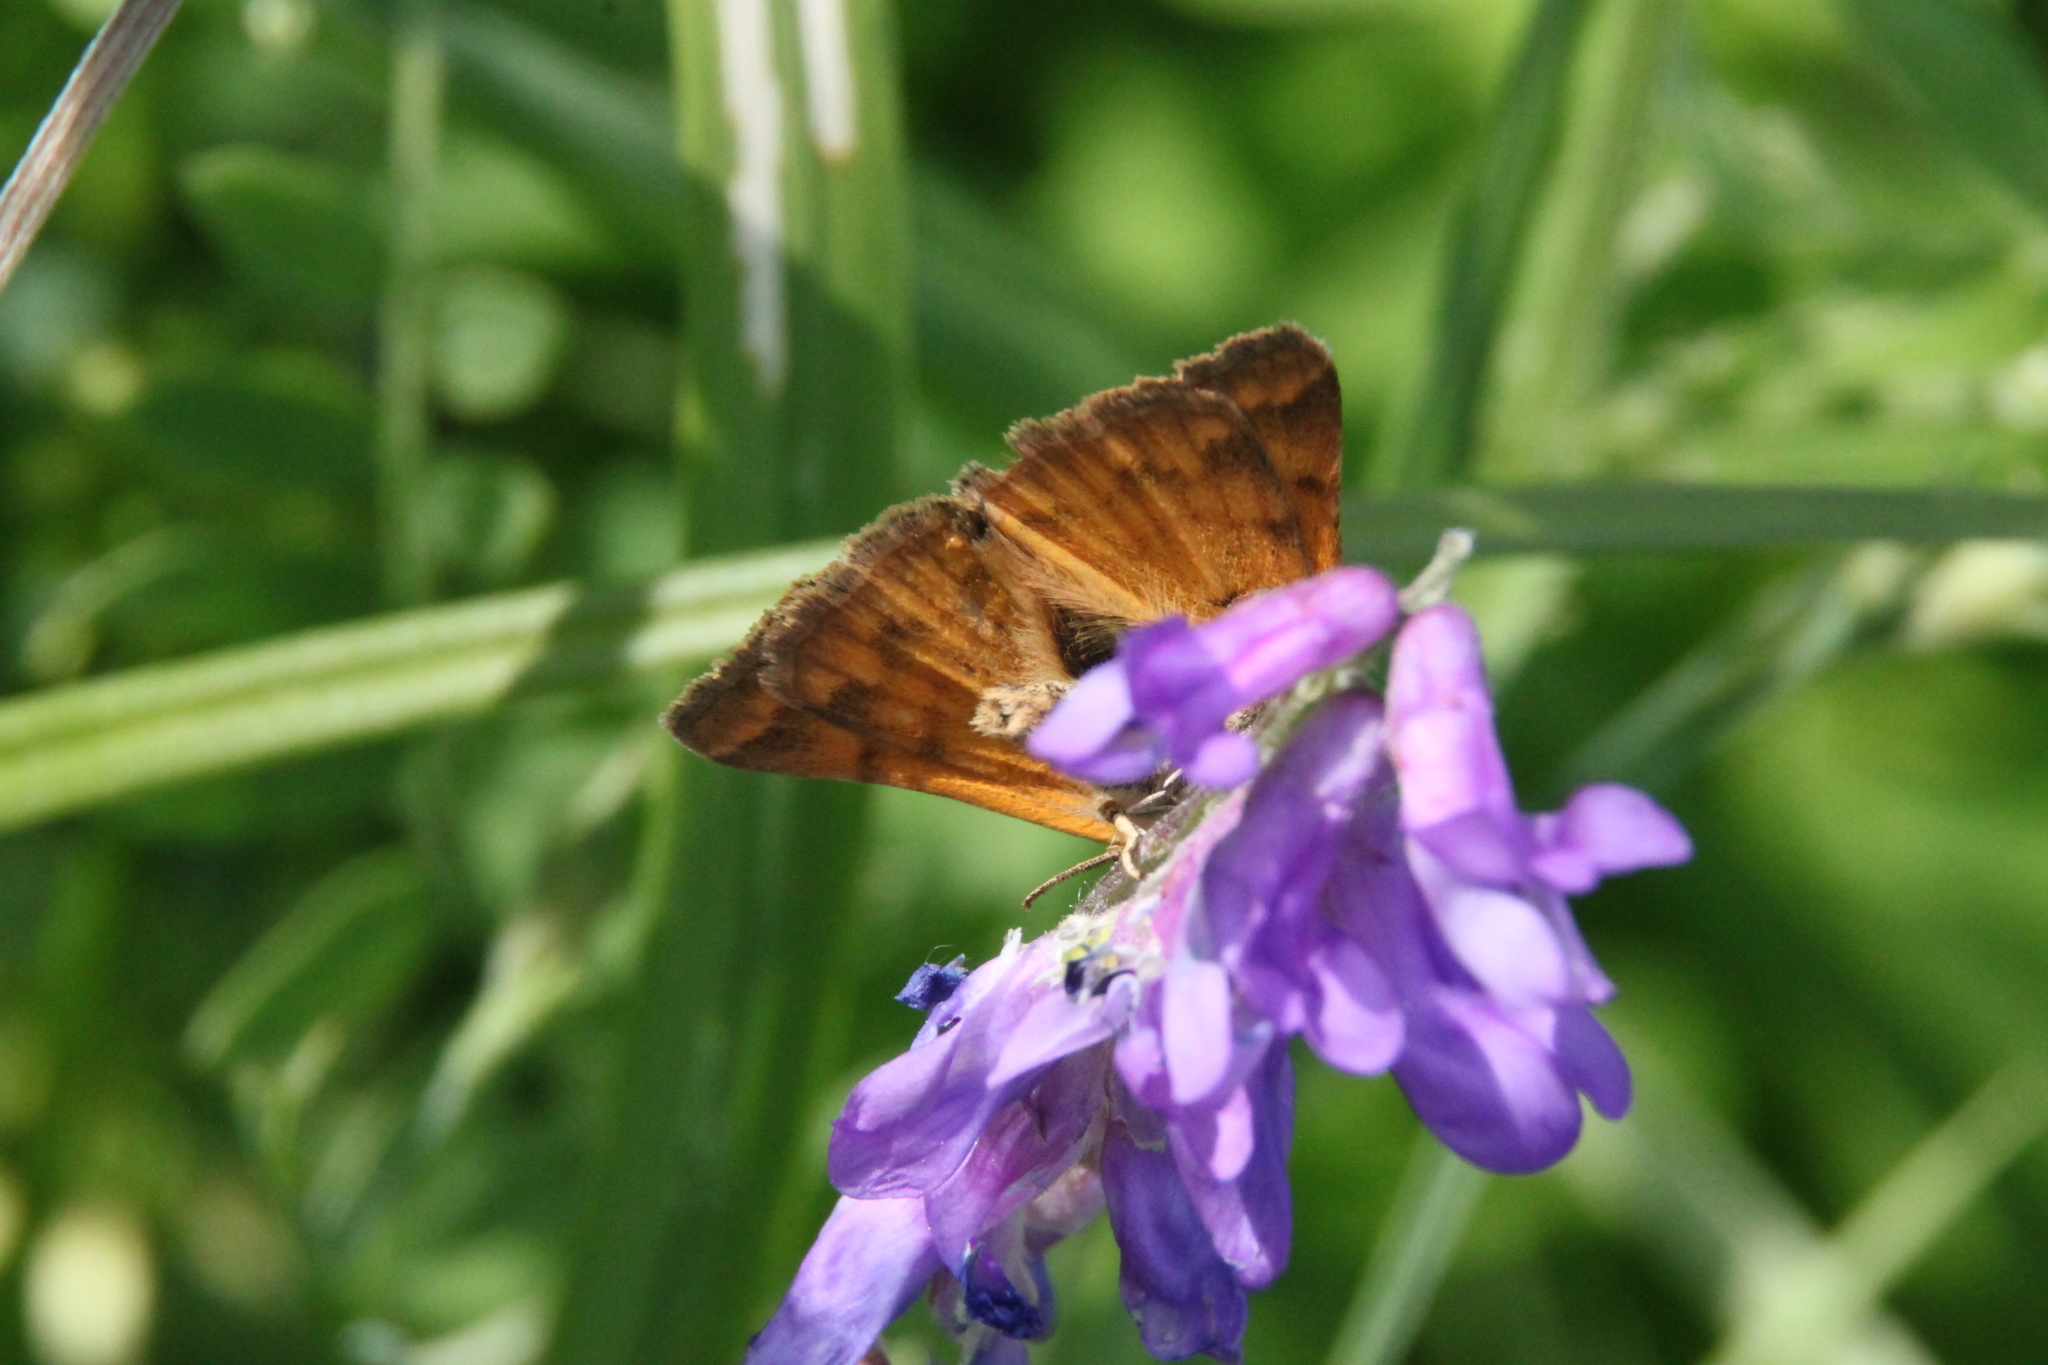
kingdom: Animalia
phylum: Arthropoda
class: Insecta
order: Lepidoptera
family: Erebidae
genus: Euclidia
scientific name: Euclidia glyphica
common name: Burnet companion
